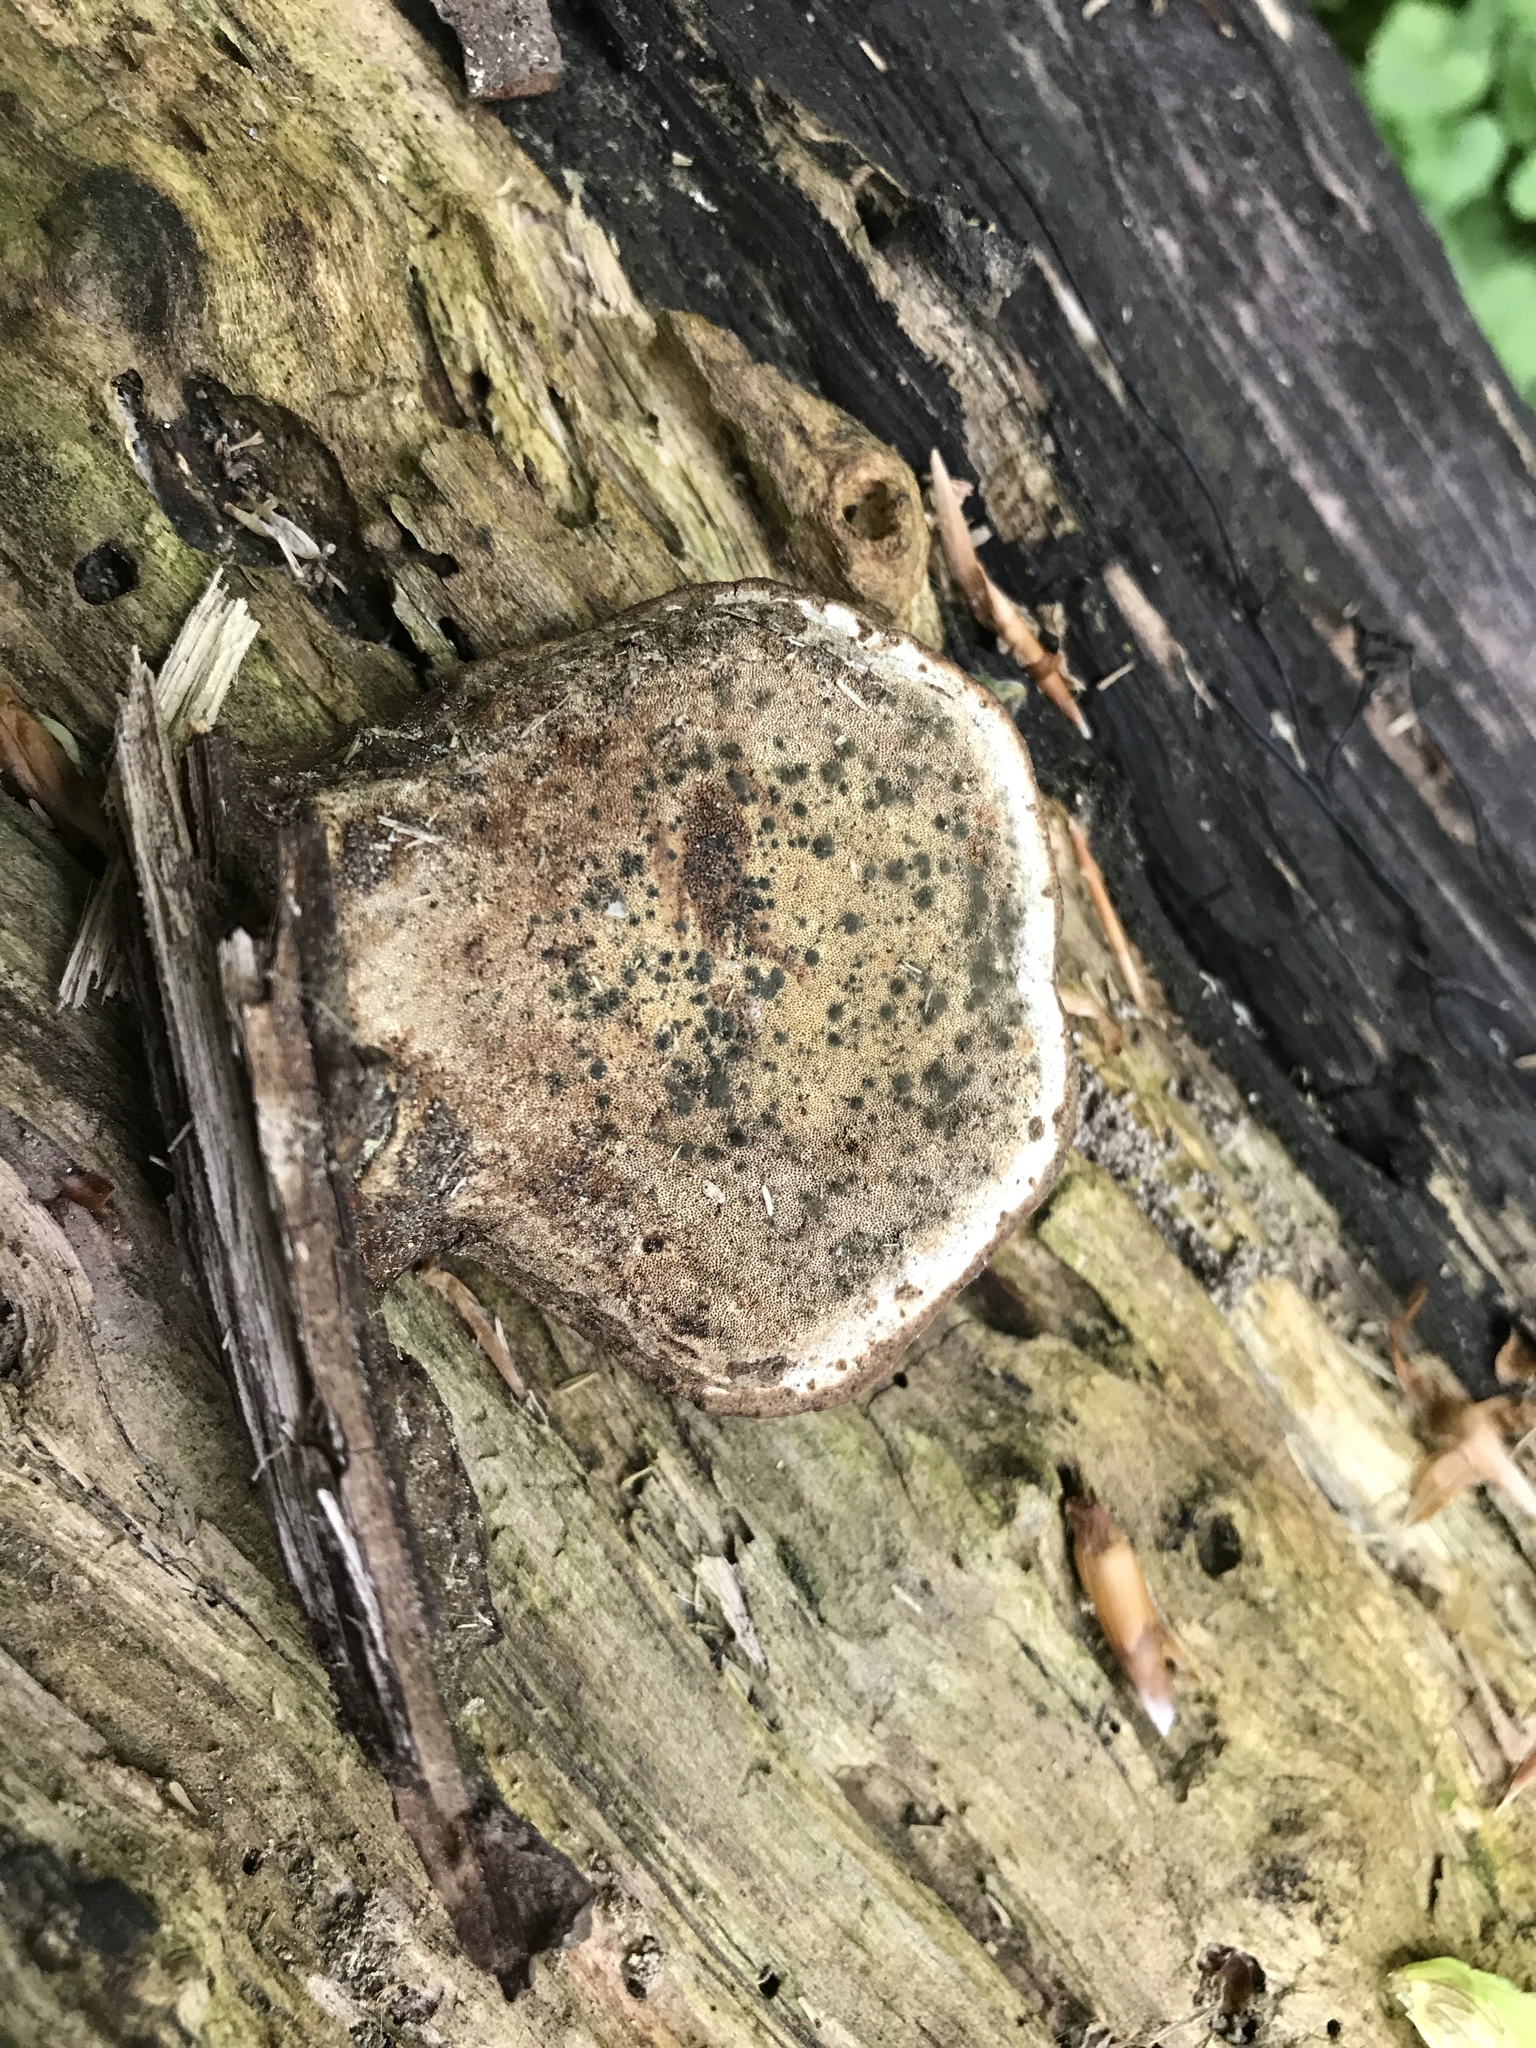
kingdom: Fungi
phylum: Basidiomycota
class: Agaricomycetes
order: Polyporales
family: Polyporaceae
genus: Ganoderma
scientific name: Ganoderma applanatum
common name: Artist's bracket
